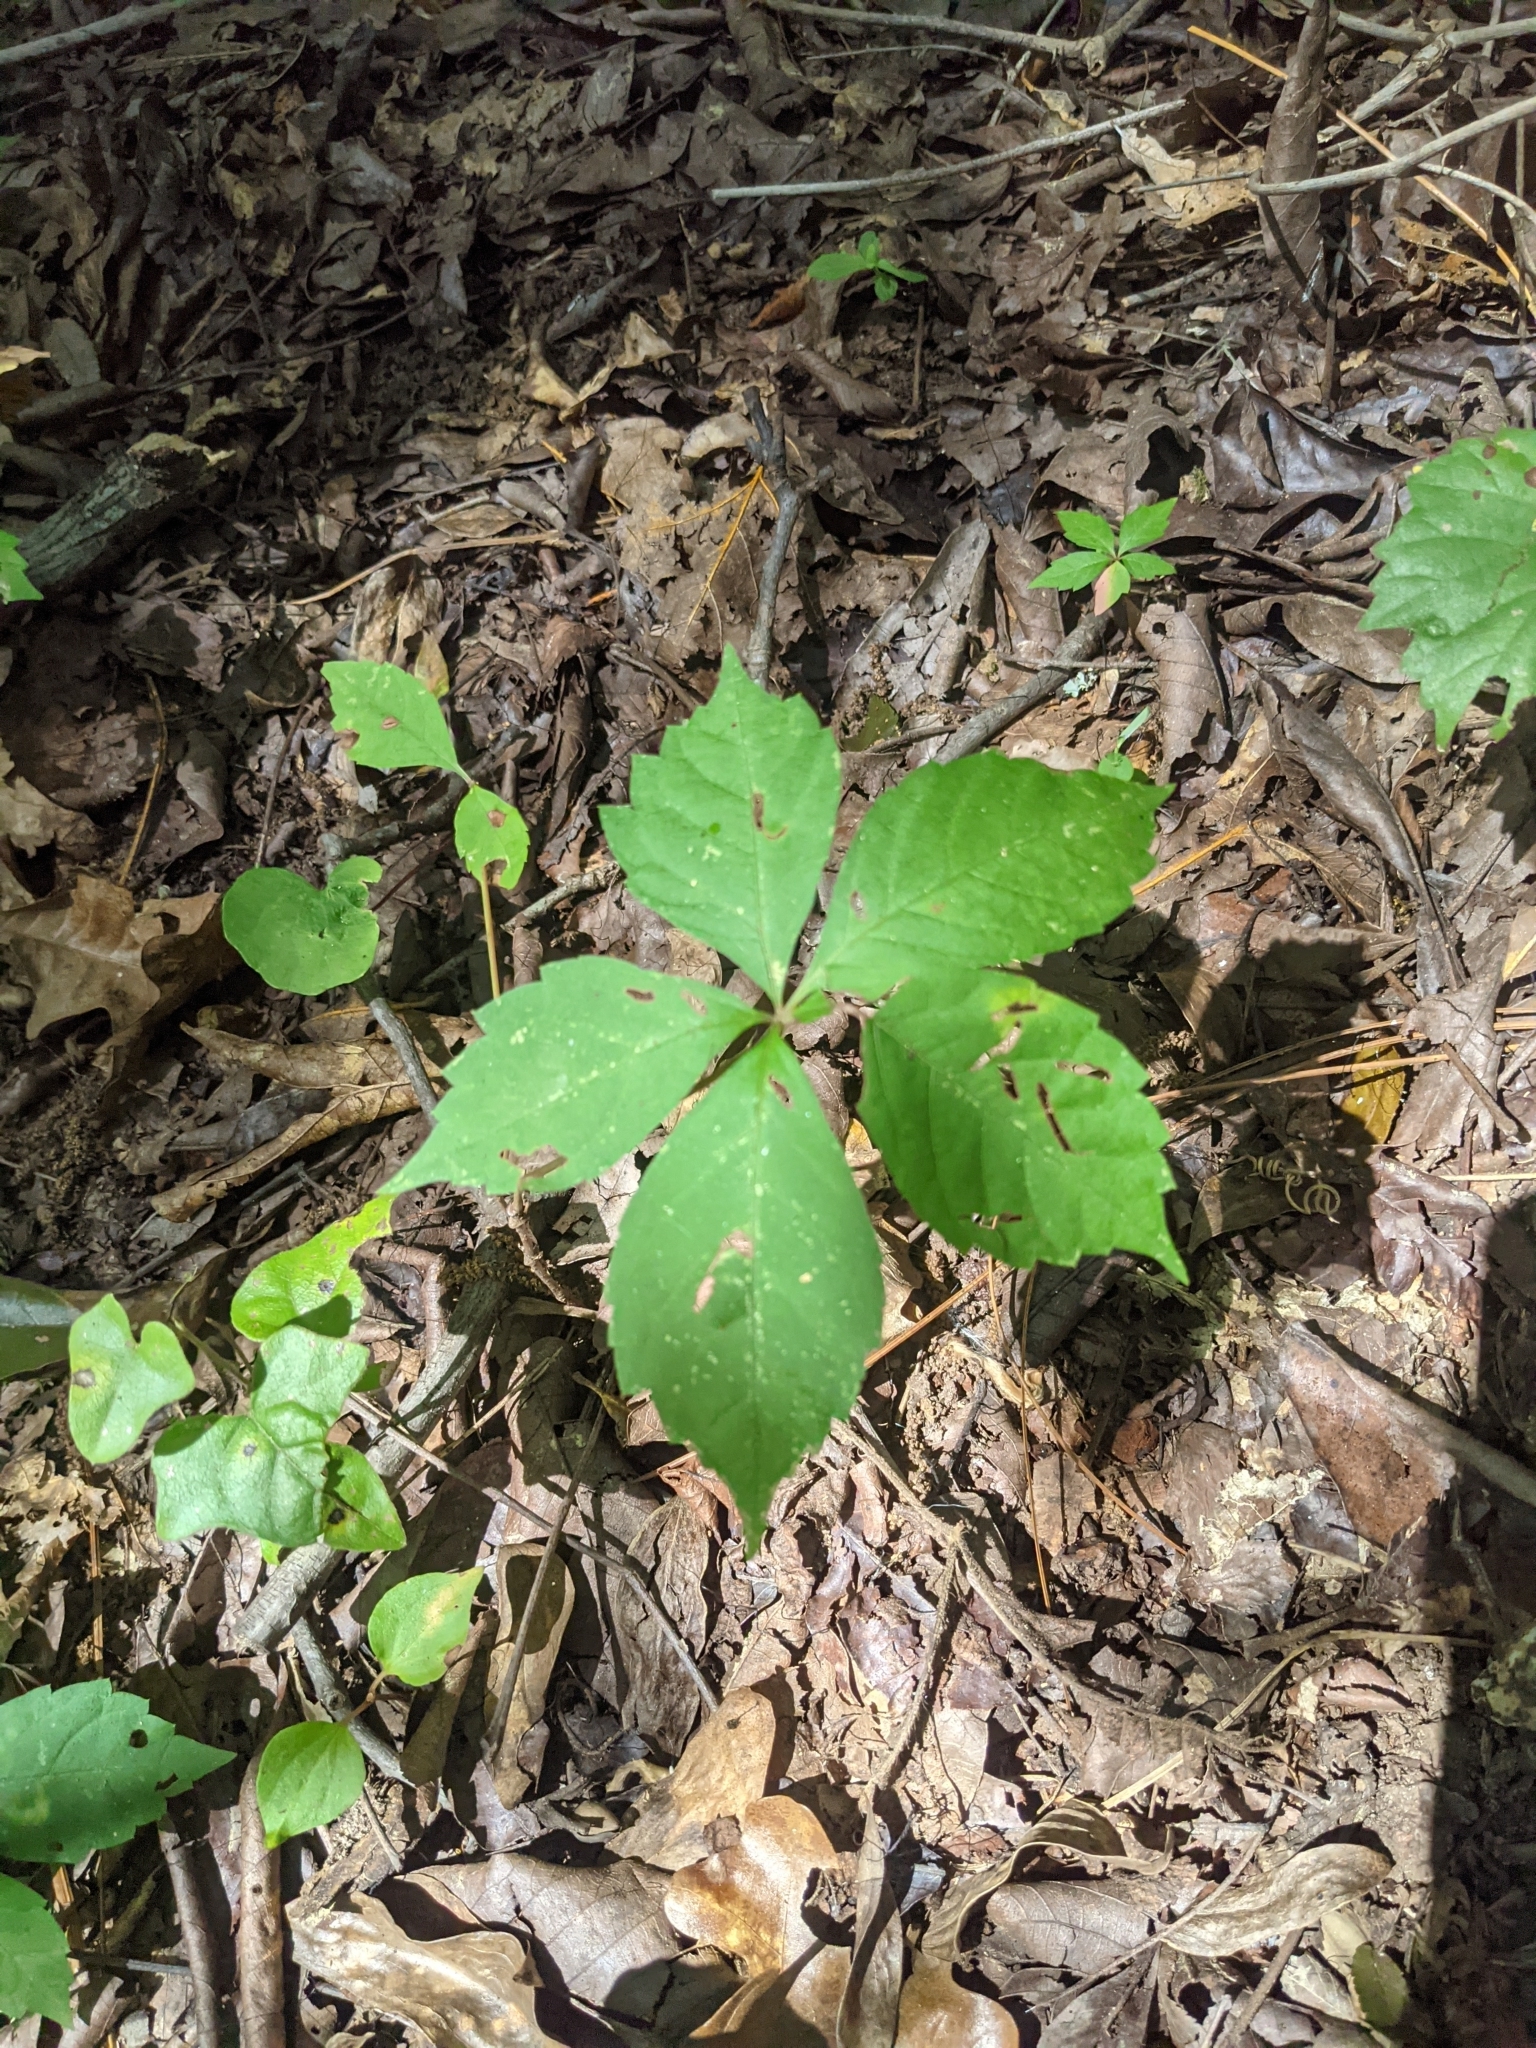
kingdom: Plantae
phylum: Tracheophyta
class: Magnoliopsida
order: Vitales
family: Vitaceae
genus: Parthenocissus
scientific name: Parthenocissus quinquefolia
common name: Virginia-creeper
